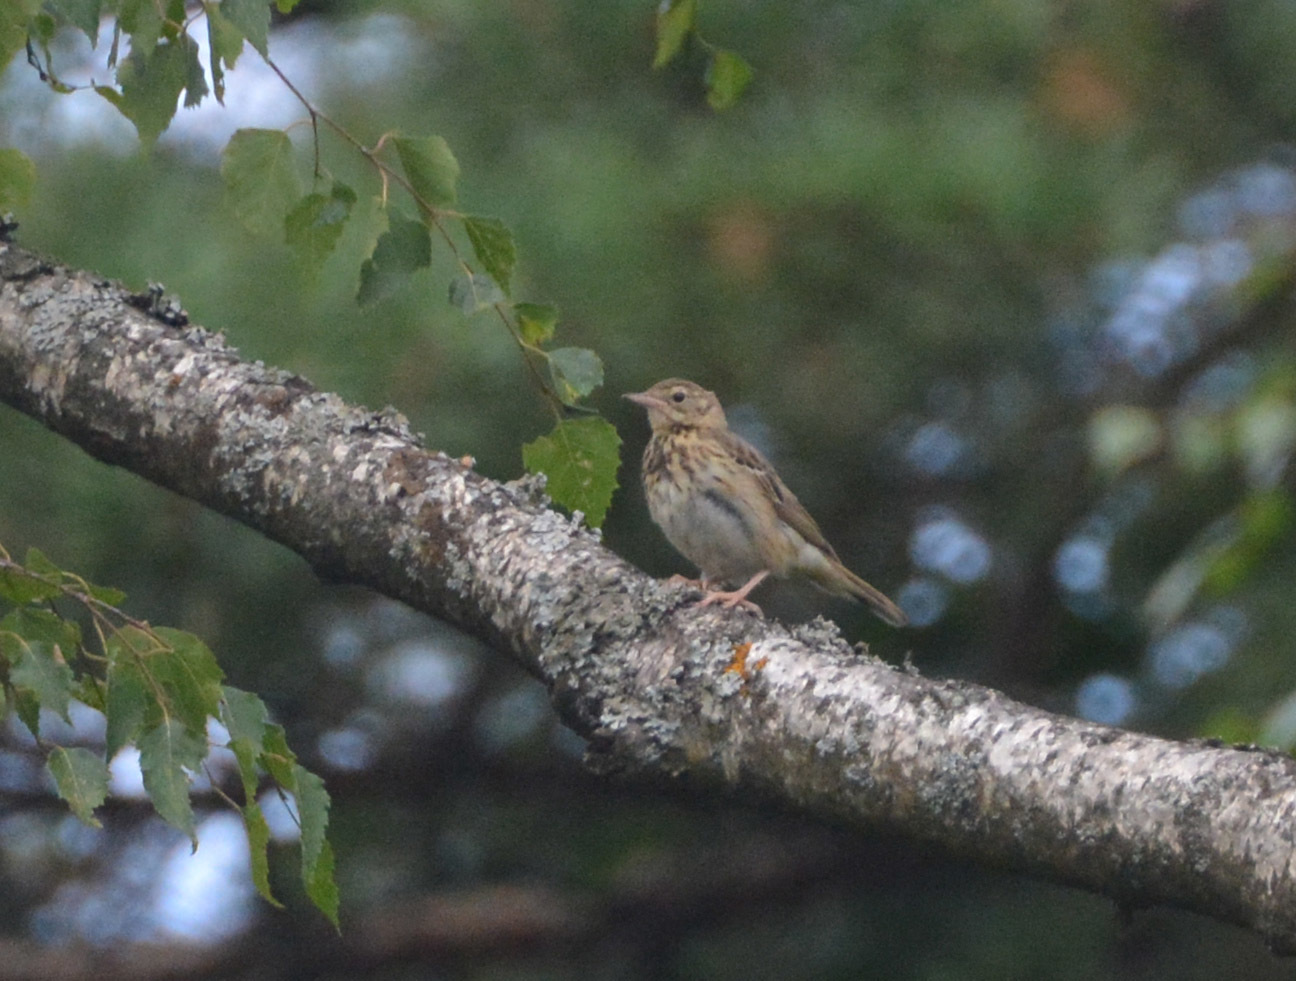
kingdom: Animalia
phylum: Chordata
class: Aves
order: Passeriformes
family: Motacillidae
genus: Anthus
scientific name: Anthus trivialis
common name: Tree pipit
